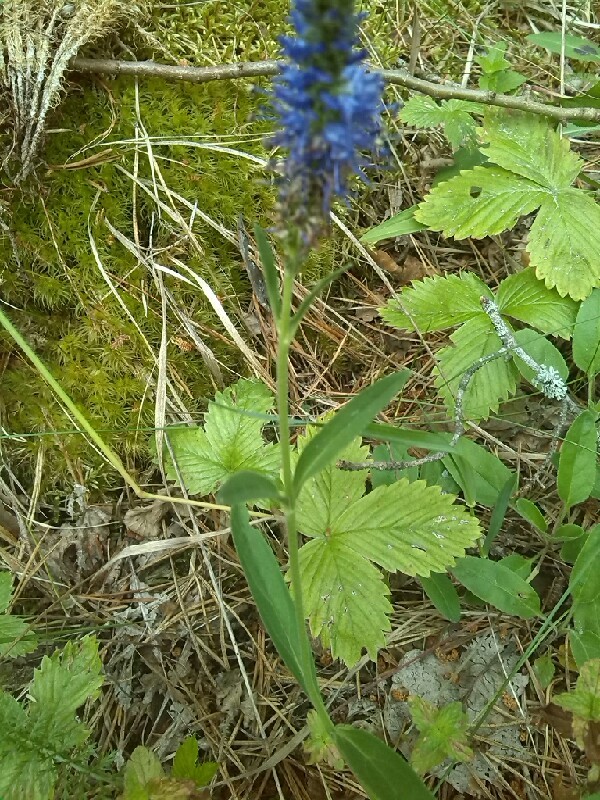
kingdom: Plantae
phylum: Tracheophyta
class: Magnoliopsida
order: Lamiales
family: Plantaginaceae
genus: Veronica
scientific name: Veronica spicata
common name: Spiked speedwell
